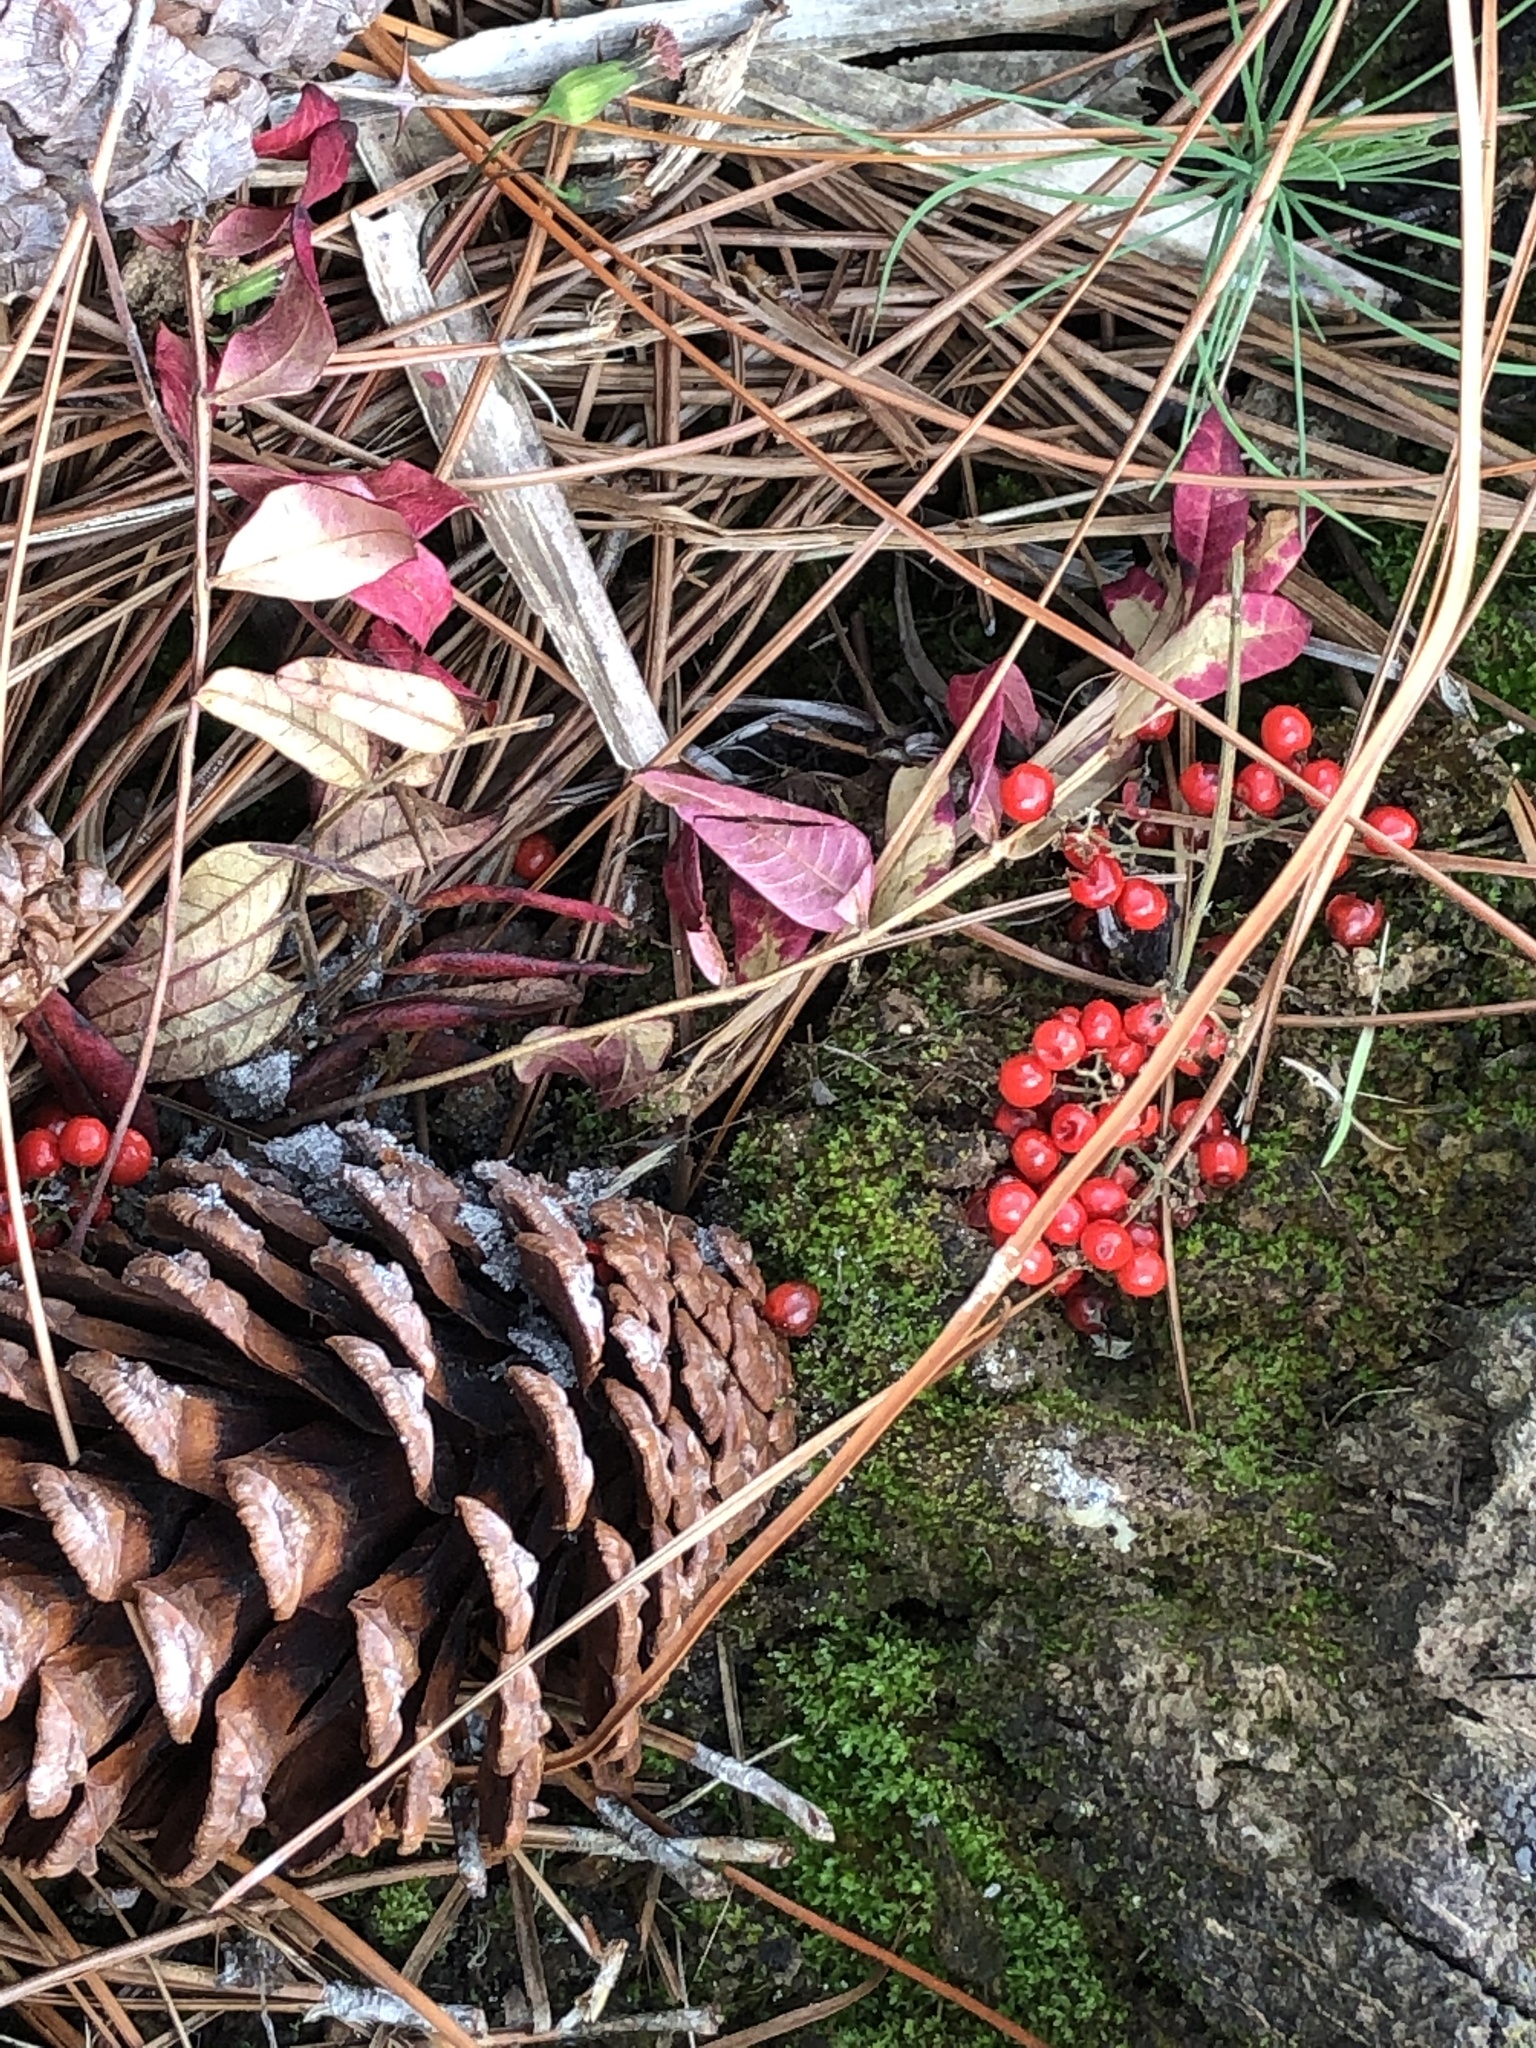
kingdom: Plantae
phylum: Tracheophyta
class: Magnoliopsida
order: Ericales
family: Primulaceae
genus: Ardisia
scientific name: Ardisia crenata
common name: Hen's eyes
